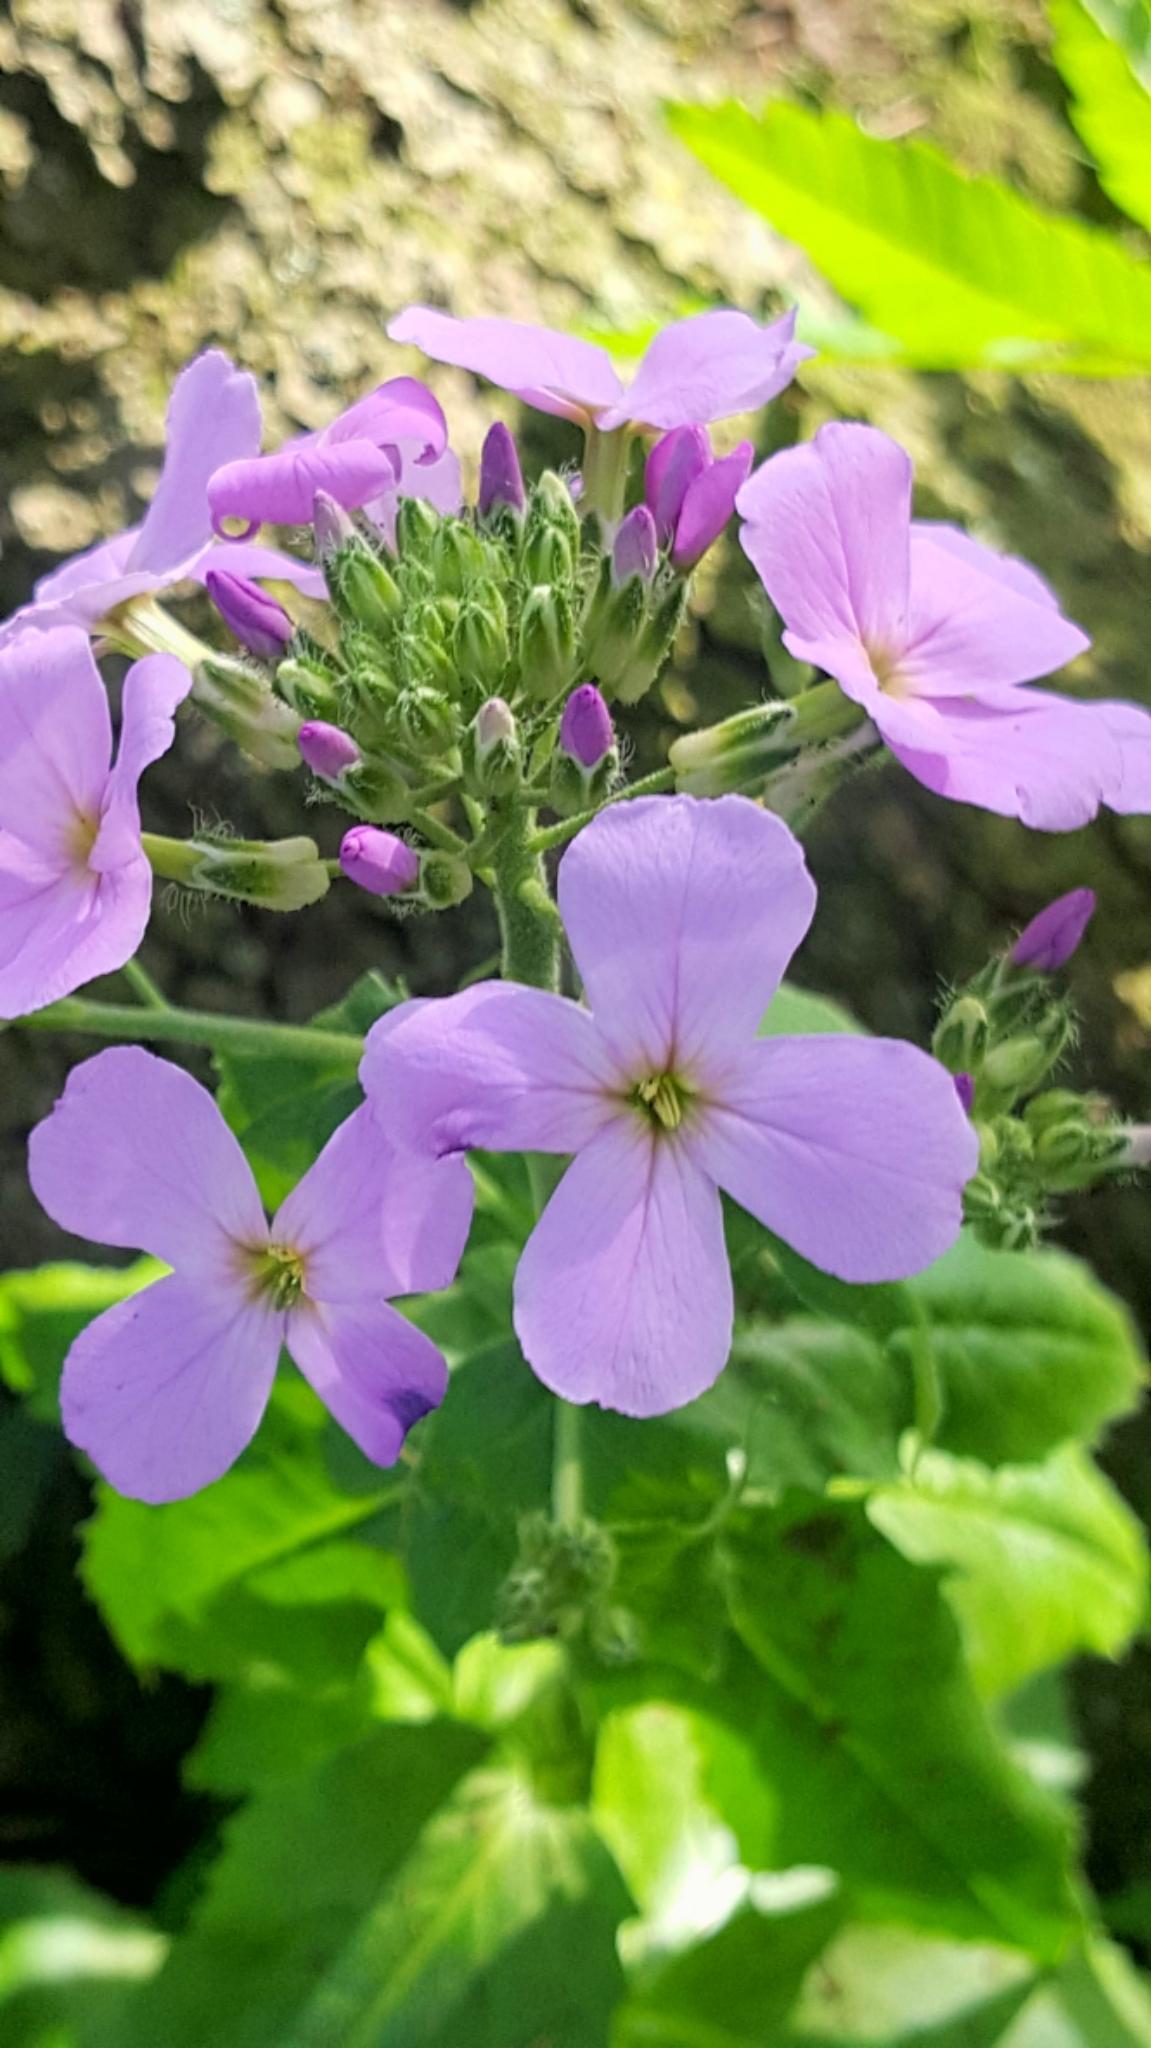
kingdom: Plantae
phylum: Tracheophyta
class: Magnoliopsida
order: Brassicales
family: Brassicaceae
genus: Hesperis
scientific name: Hesperis matronalis
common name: Dame's-violet
